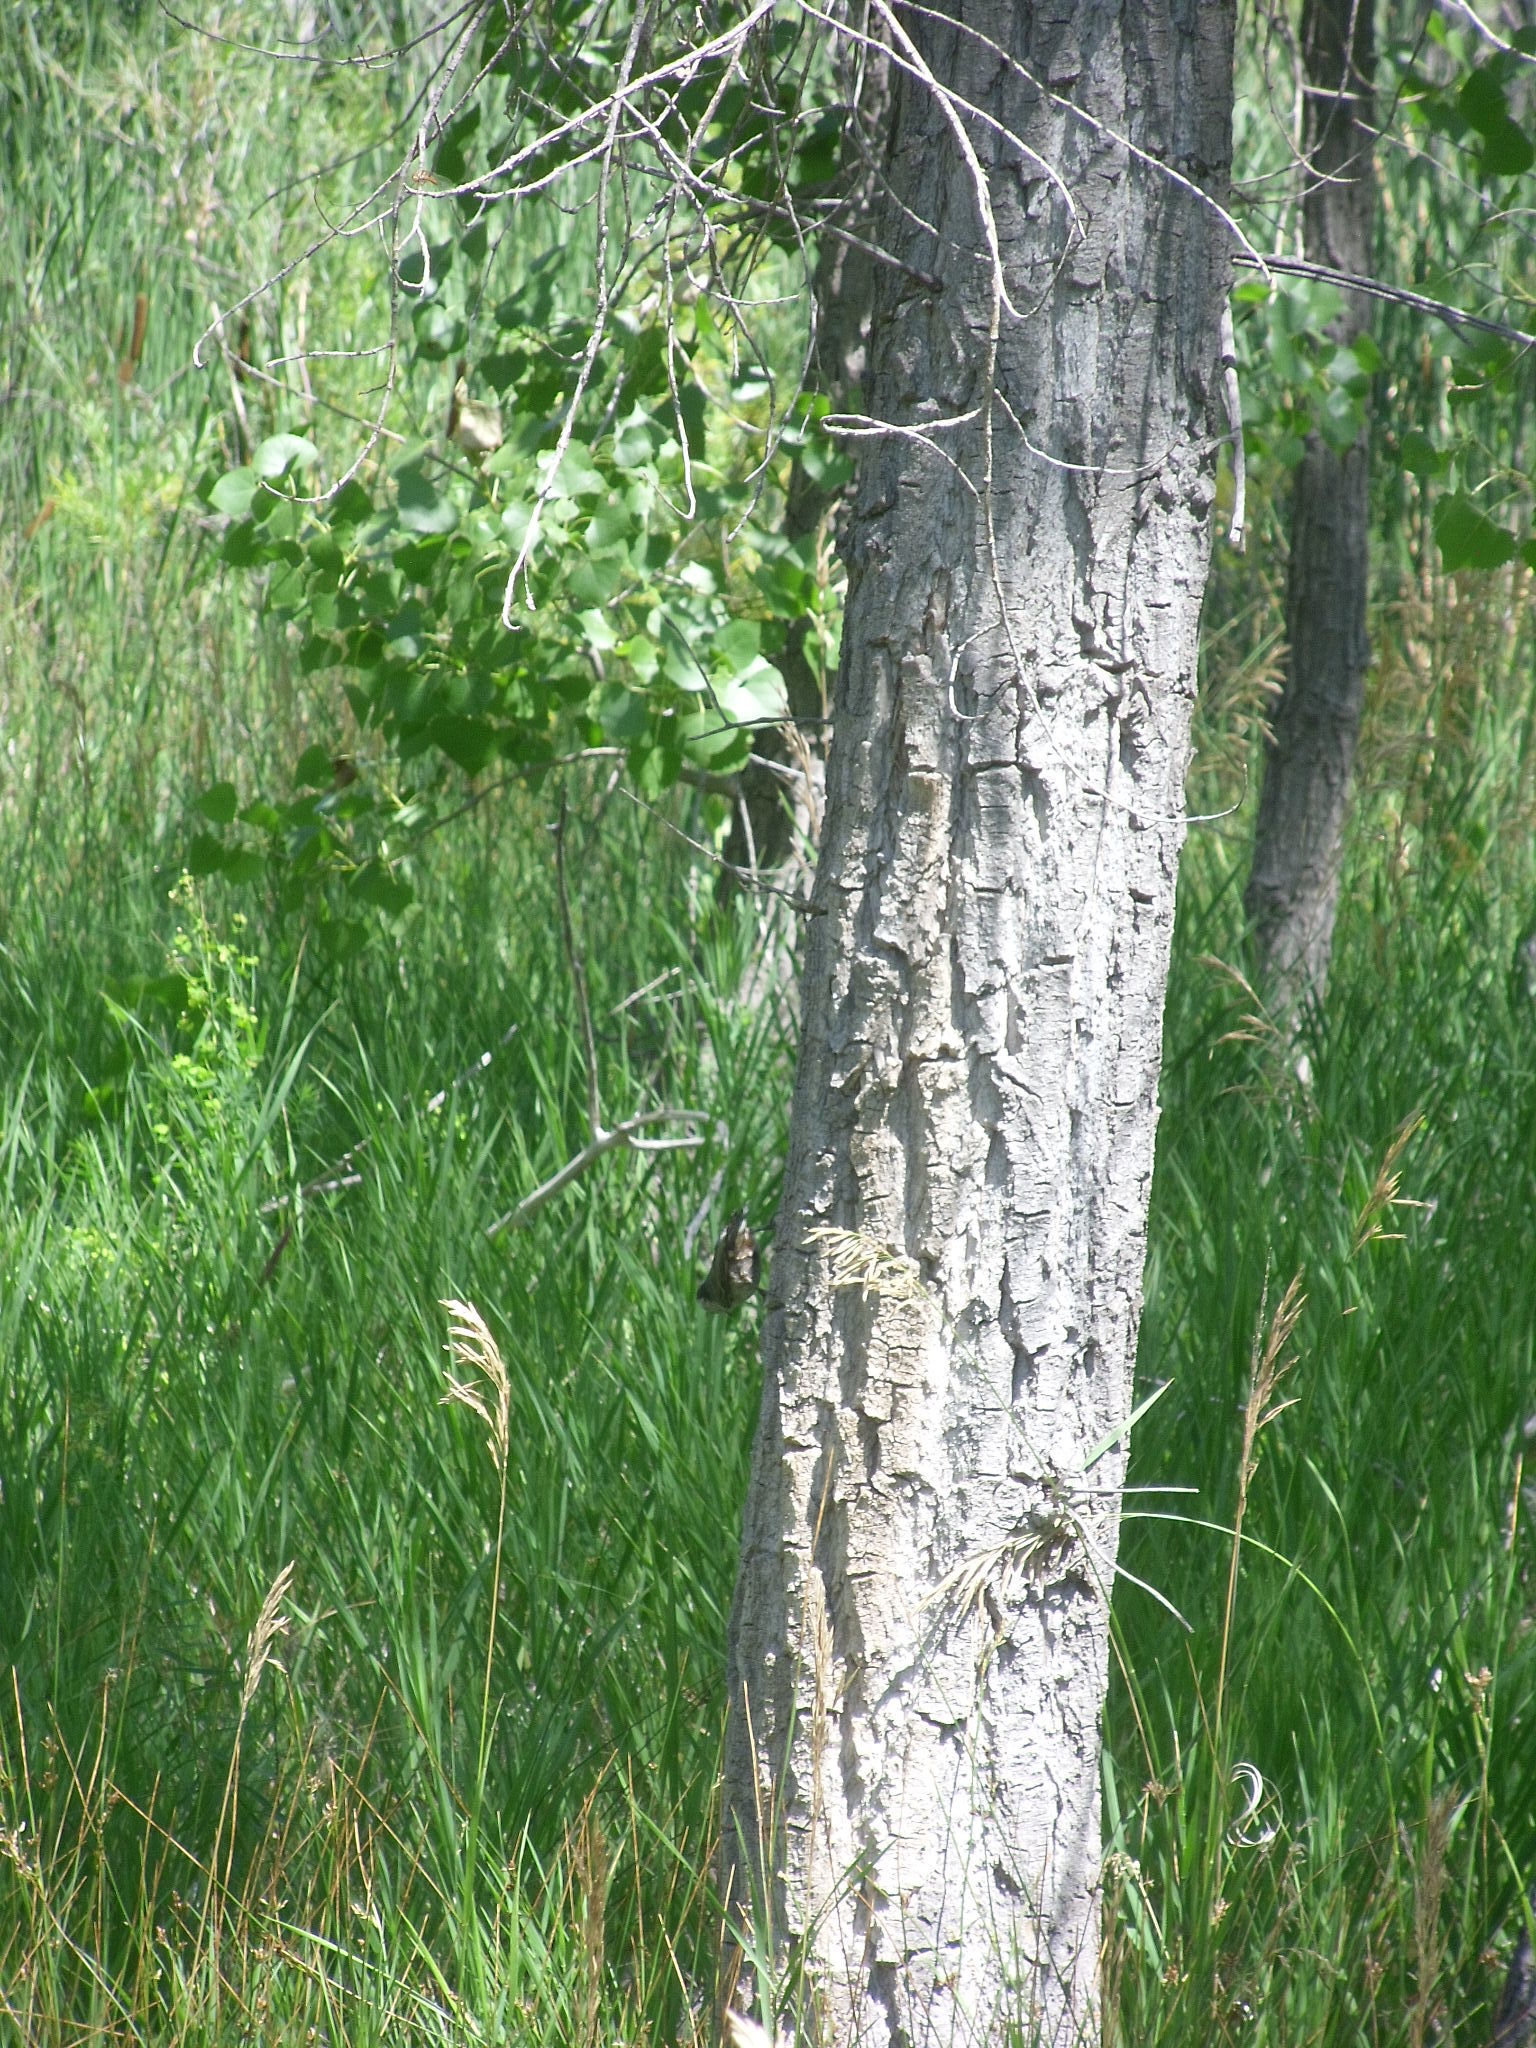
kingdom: Animalia
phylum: Chordata
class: Aves
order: Passeriformes
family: Sittidae
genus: Sitta
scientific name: Sitta carolinensis
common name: White-breasted nuthatch
